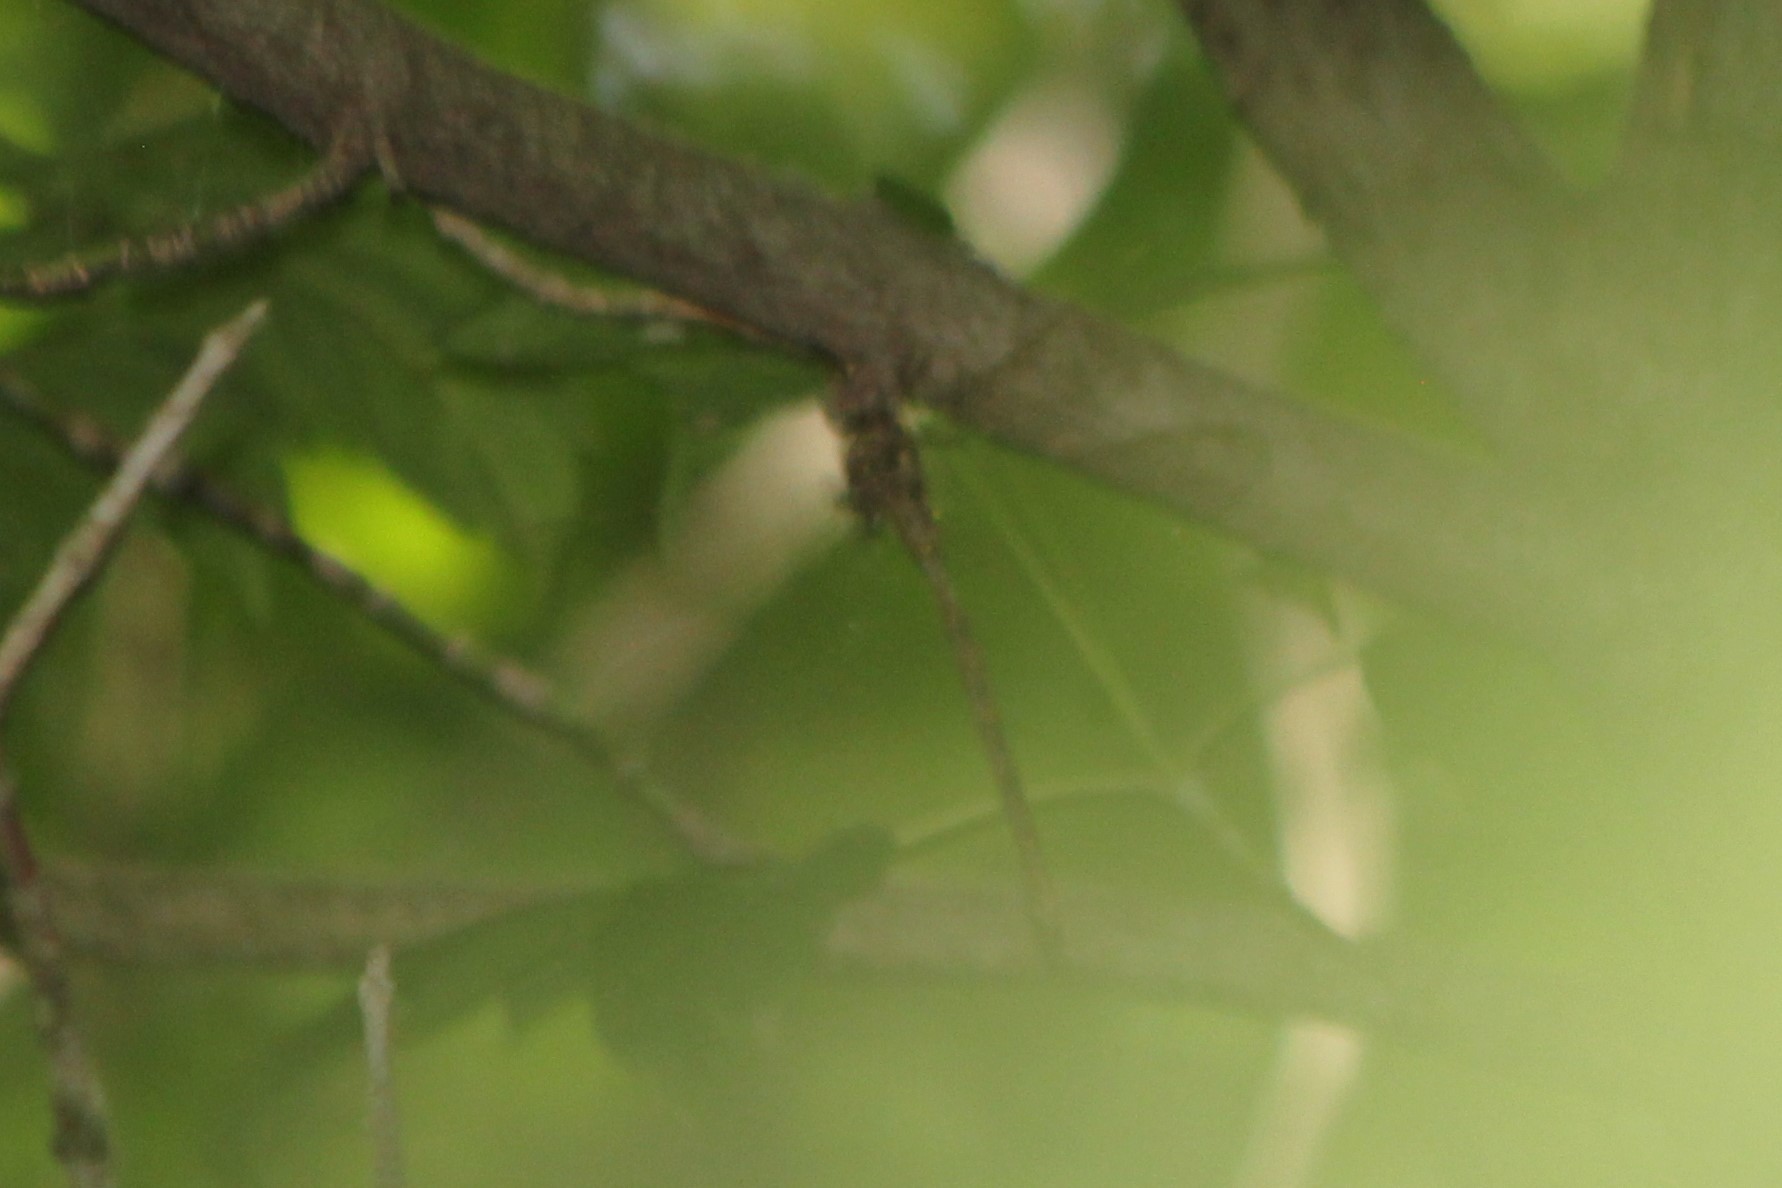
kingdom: Animalia
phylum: Arthropoda
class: Insecta
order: Odonata
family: Aeshnidae
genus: Boyeria
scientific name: Boyeria vinosa
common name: Fawn darner
